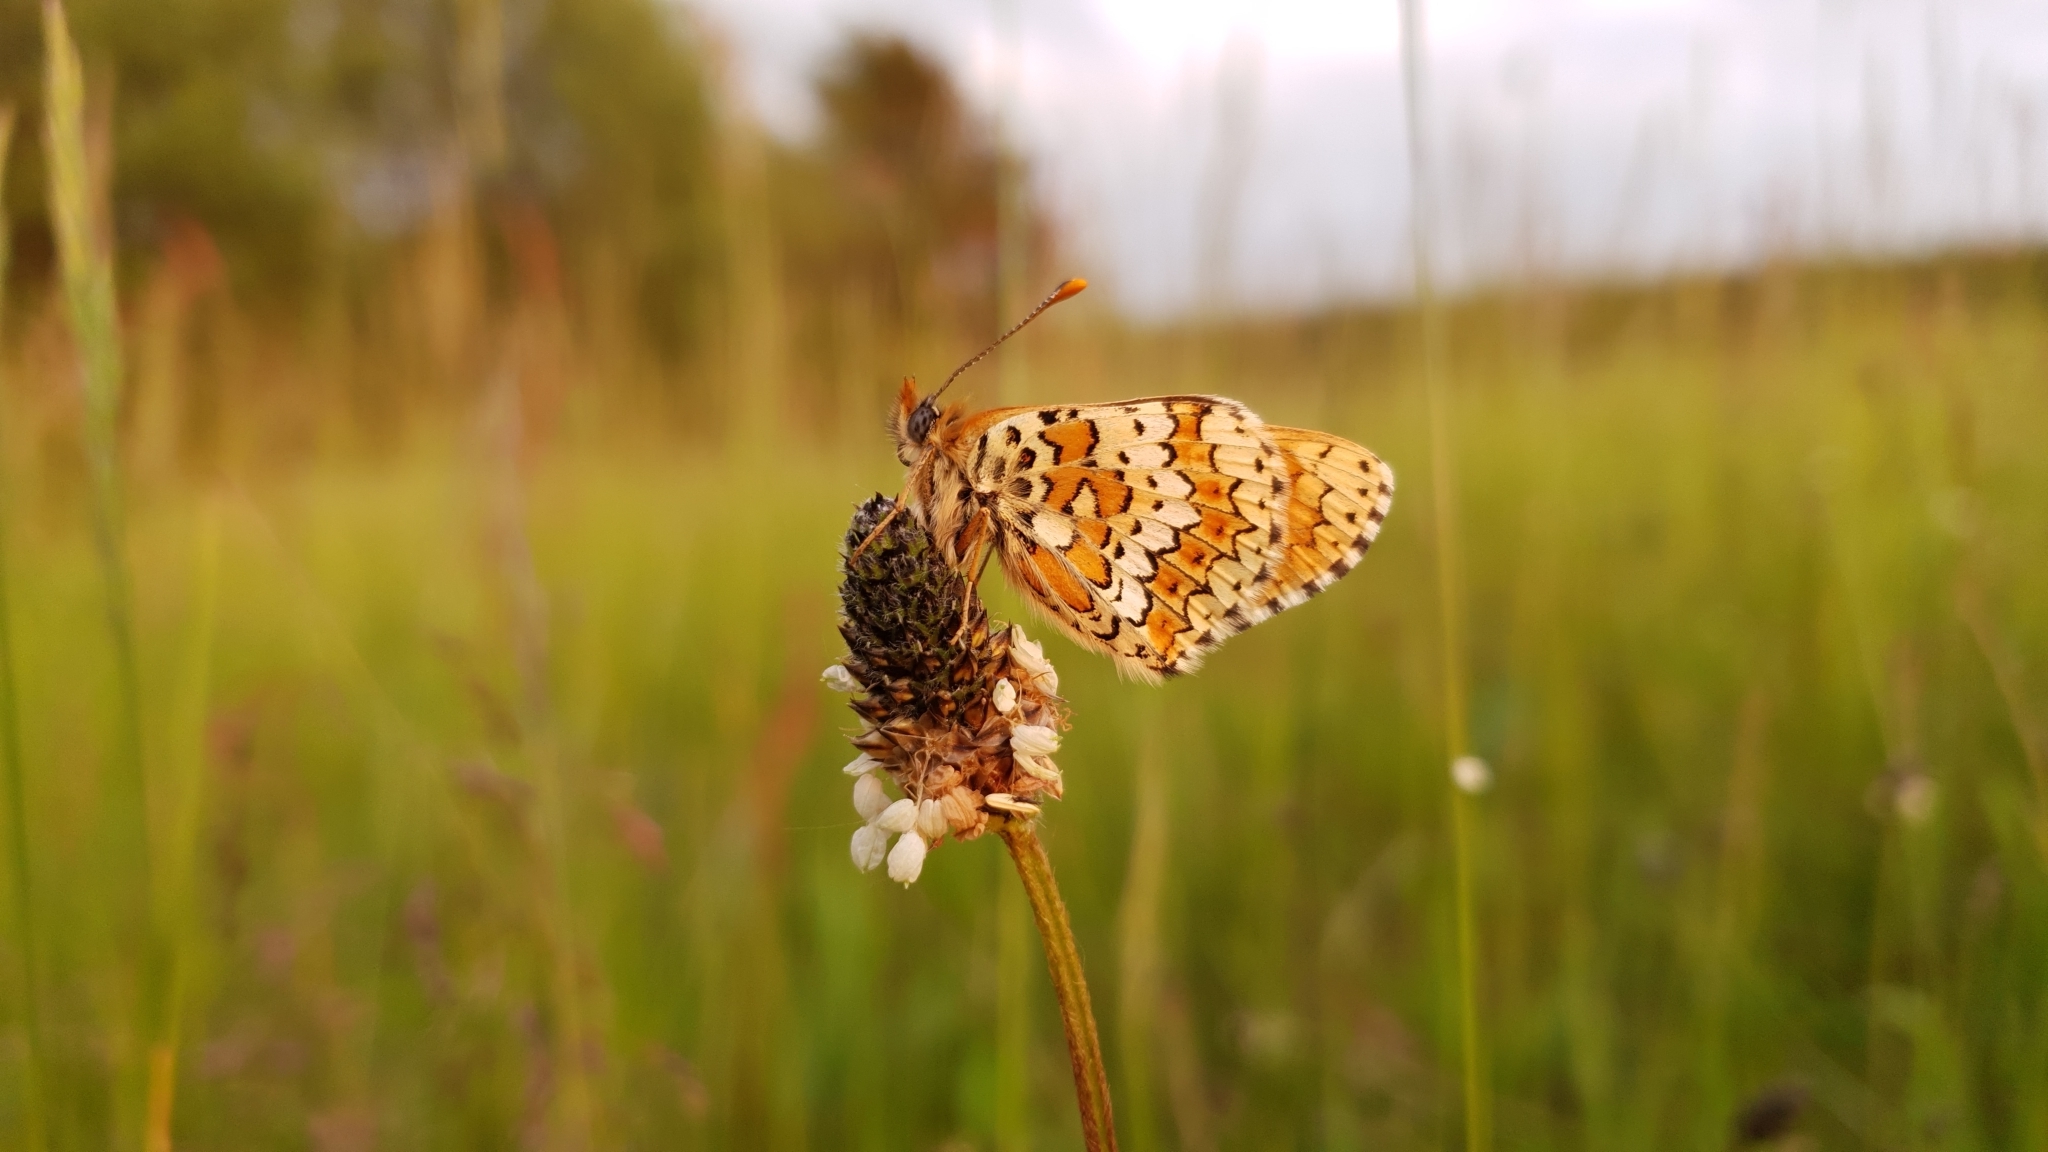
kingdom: Animalia
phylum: Arthropoda
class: Insecta
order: Lepidoptera
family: Nymphalidae
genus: Melitaea
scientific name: Melitaea cinxia
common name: Glanville fritillary
